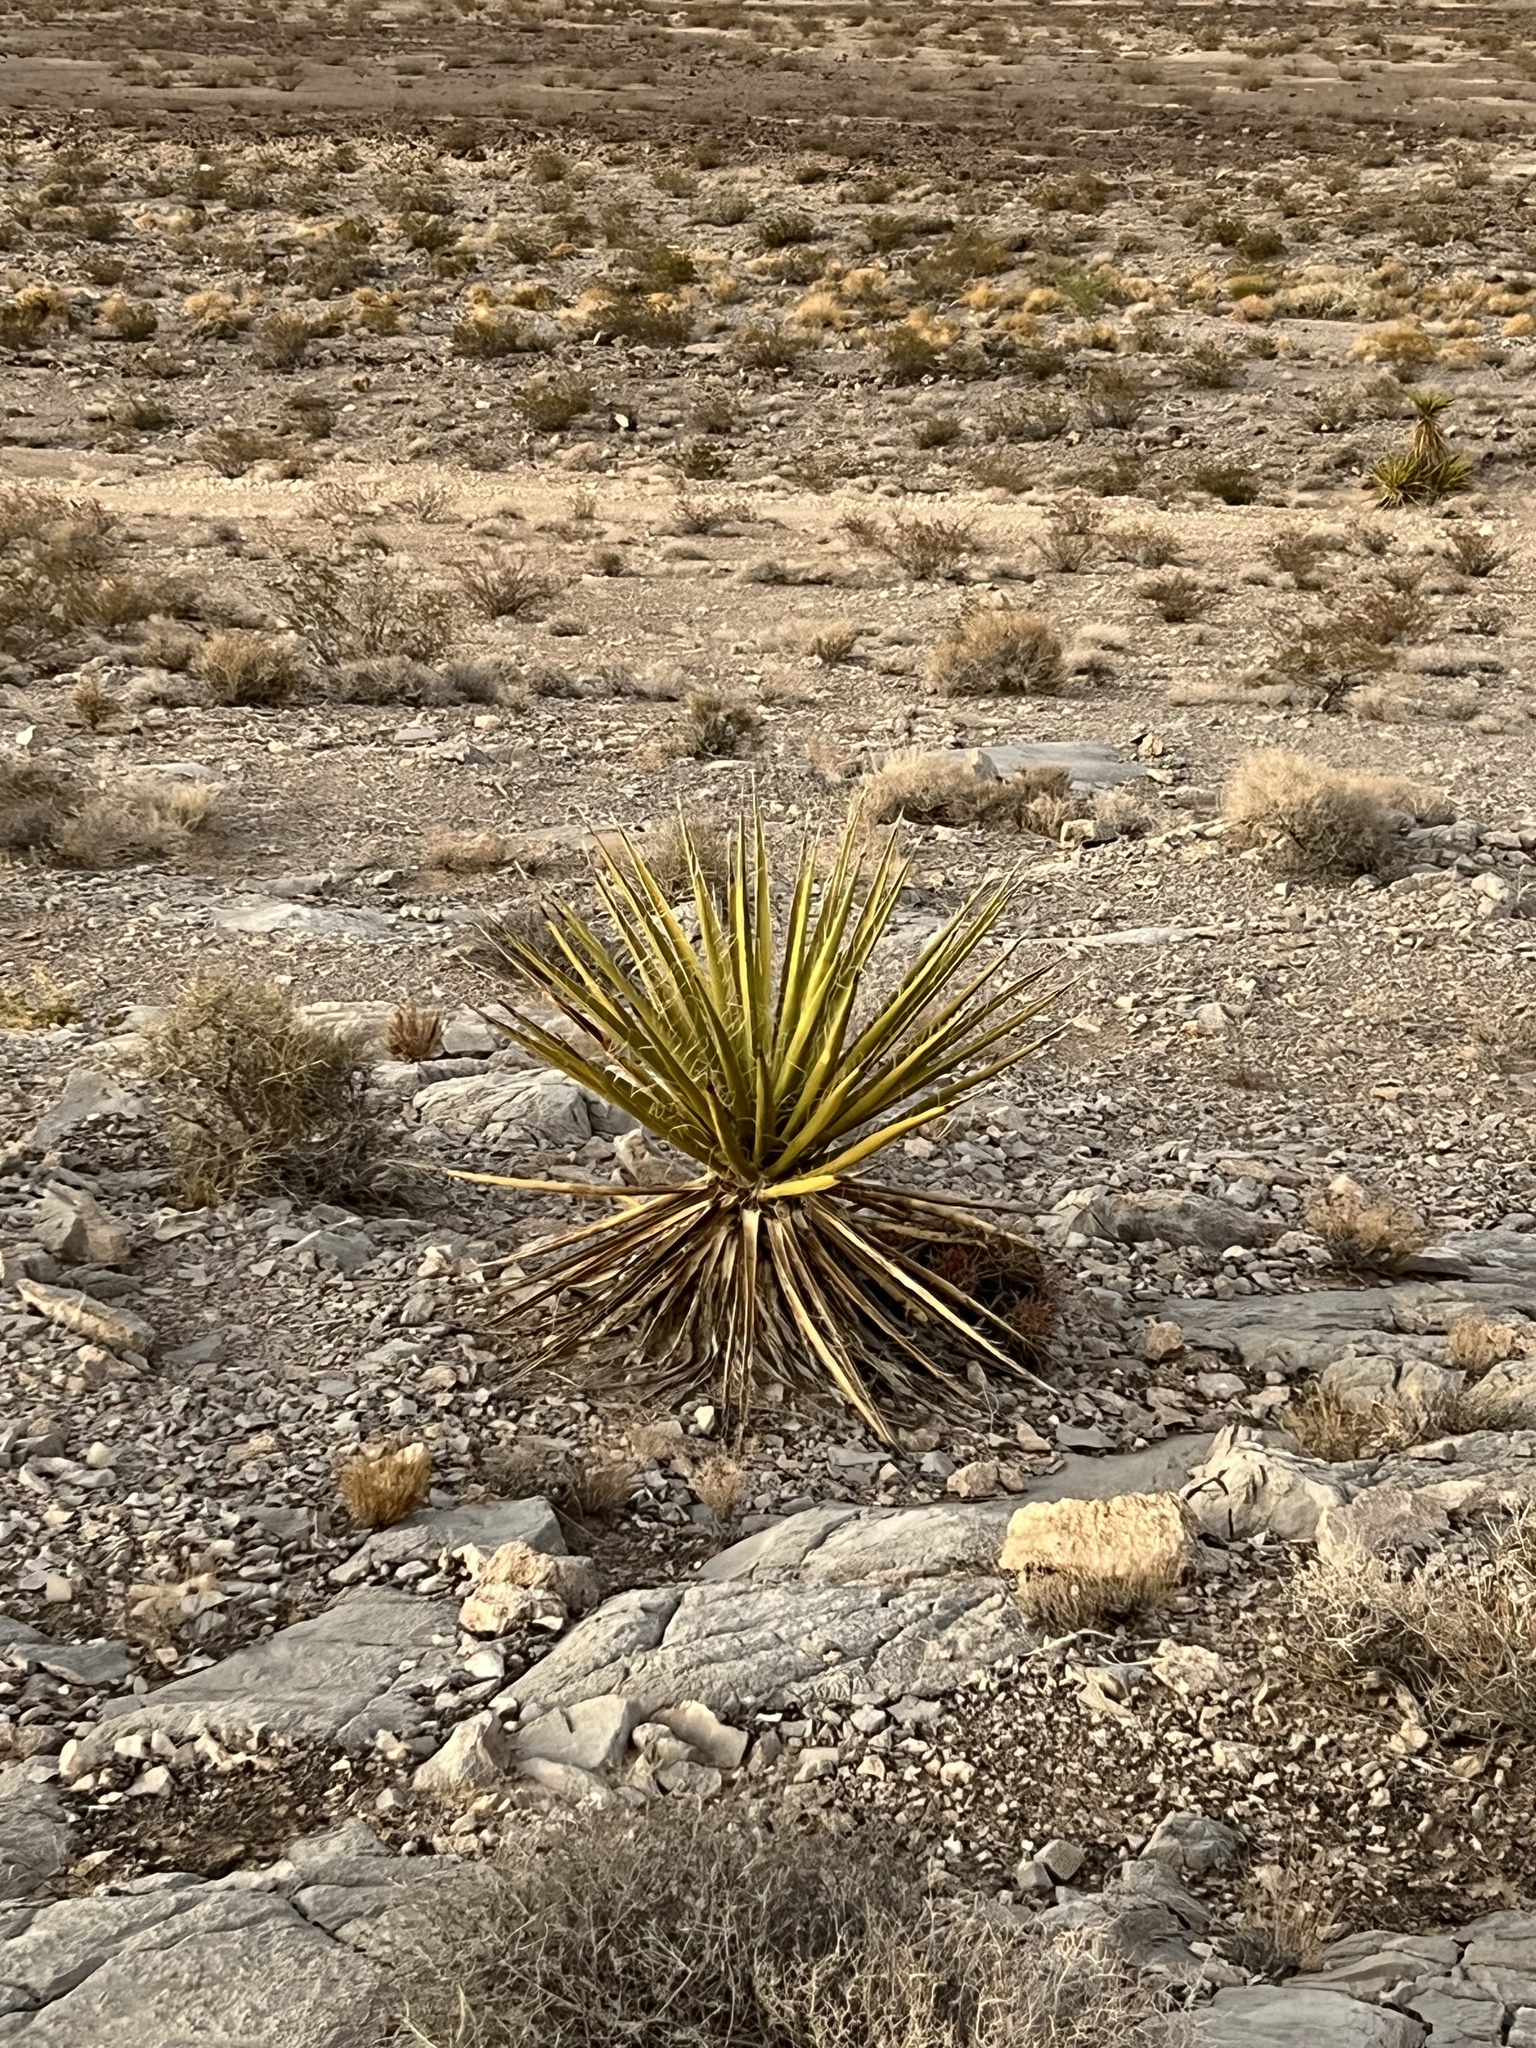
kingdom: Plantae
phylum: Tracheophyta
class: Liliopsida
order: Asparagales
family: Asparagaceae
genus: Yucca
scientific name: Yucca schidigera
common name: Mojave yucca
